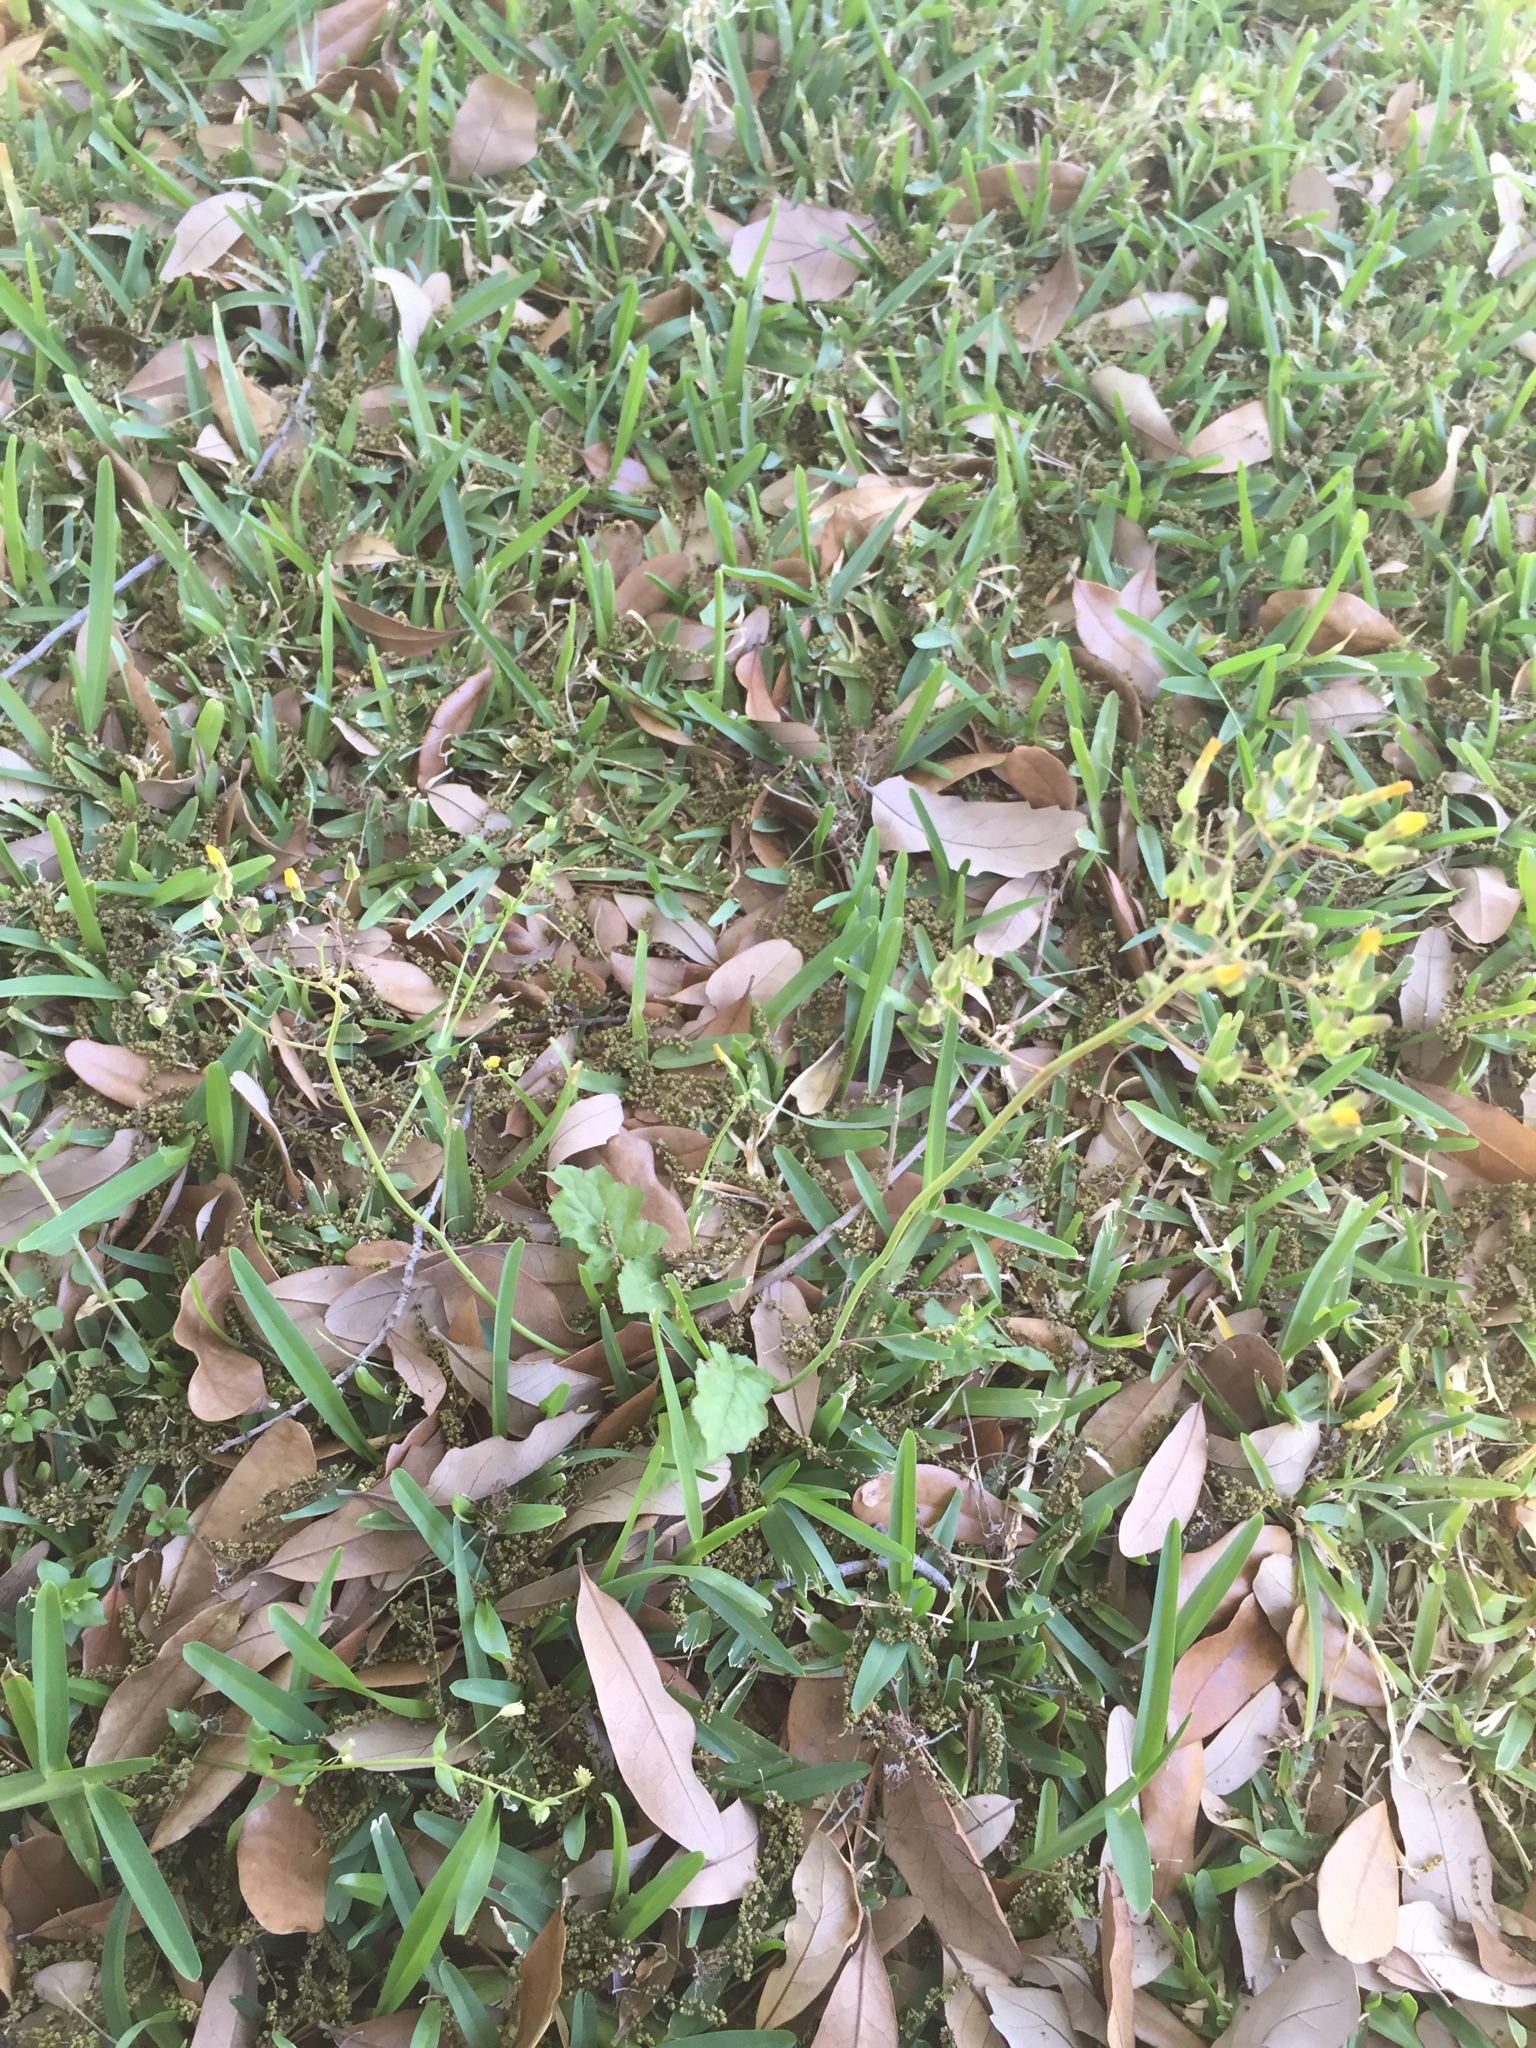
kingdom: Plantae
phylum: Tracheophyta
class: Magnoliopsida
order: Asterales
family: Asteraceae
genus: Youngia
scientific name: Youngia japonica
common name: Oriental false hawksbeard
